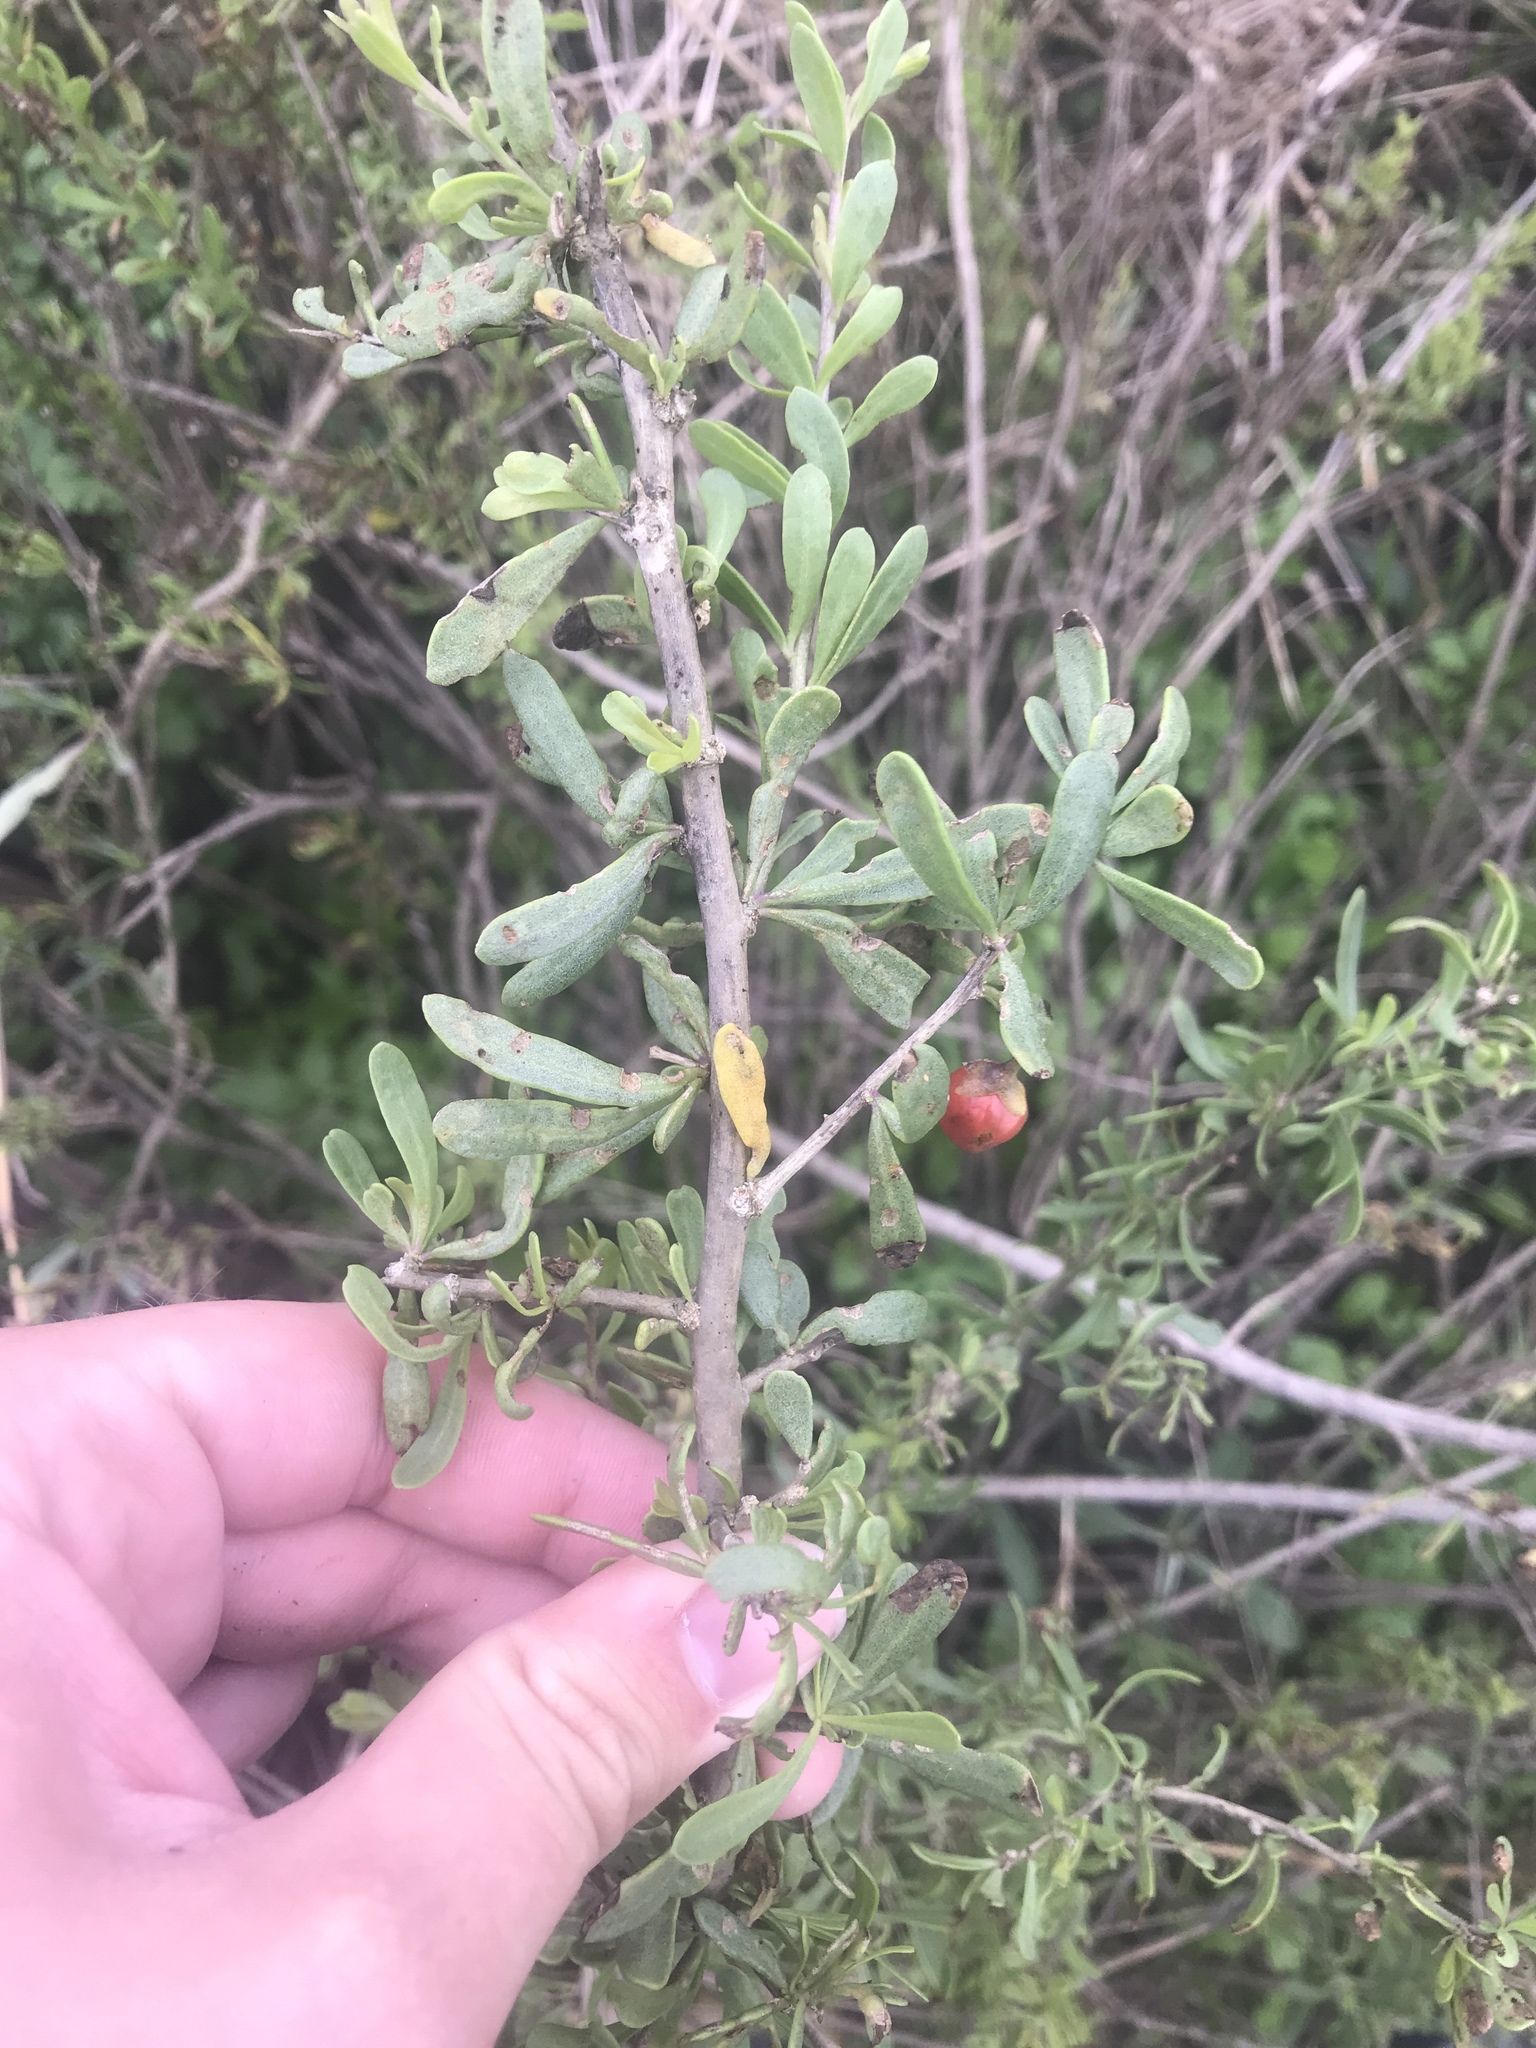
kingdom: Plantae
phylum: Tracheophyta
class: Magnoliopsida
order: Solanales
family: Solanaceae
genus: Lycium
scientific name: Lycium carolinianum
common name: Christmasberry
